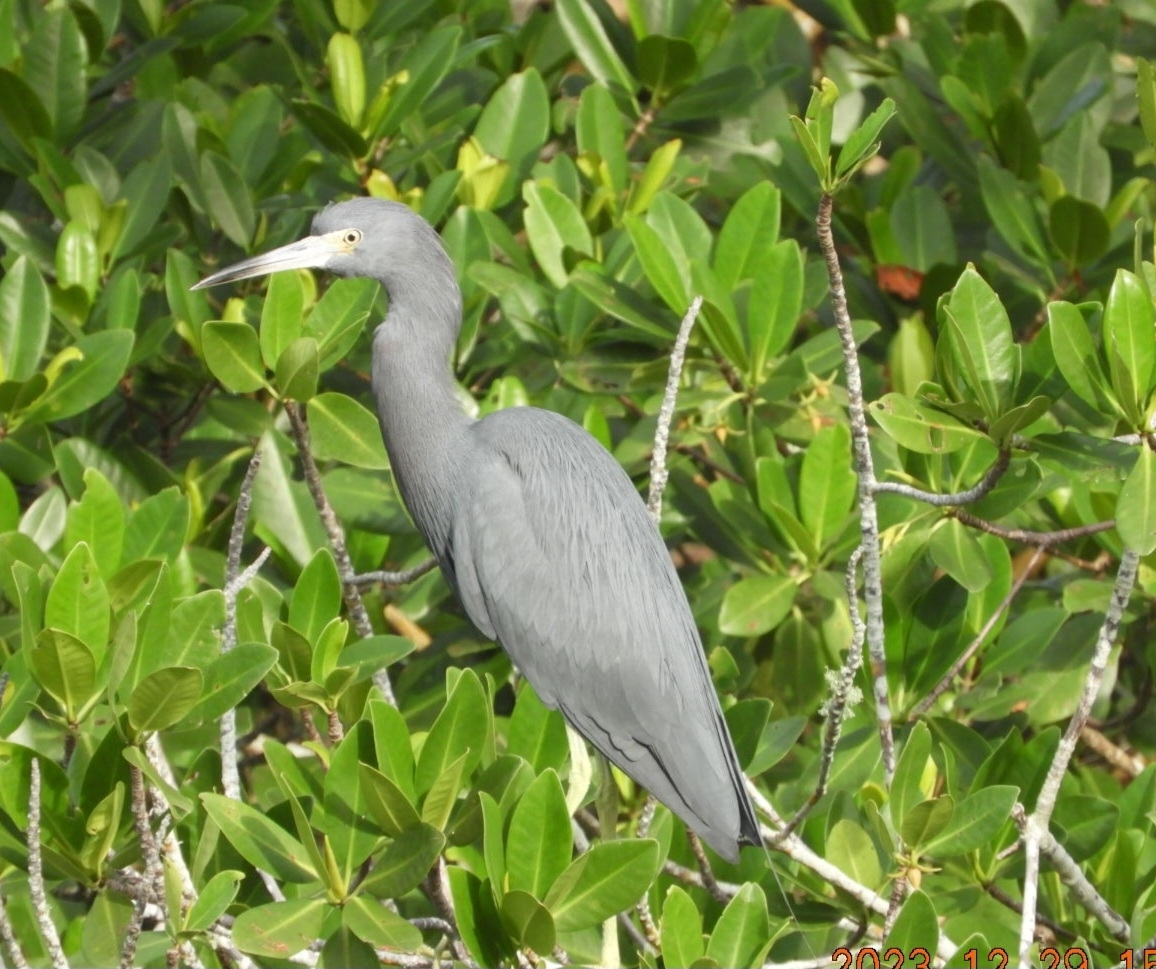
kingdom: Animalia
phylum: Chordata
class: Aves
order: Pelecaniformes
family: Ardeidae
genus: Egretta
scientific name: Egretta caerulea
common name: Little blue heron
